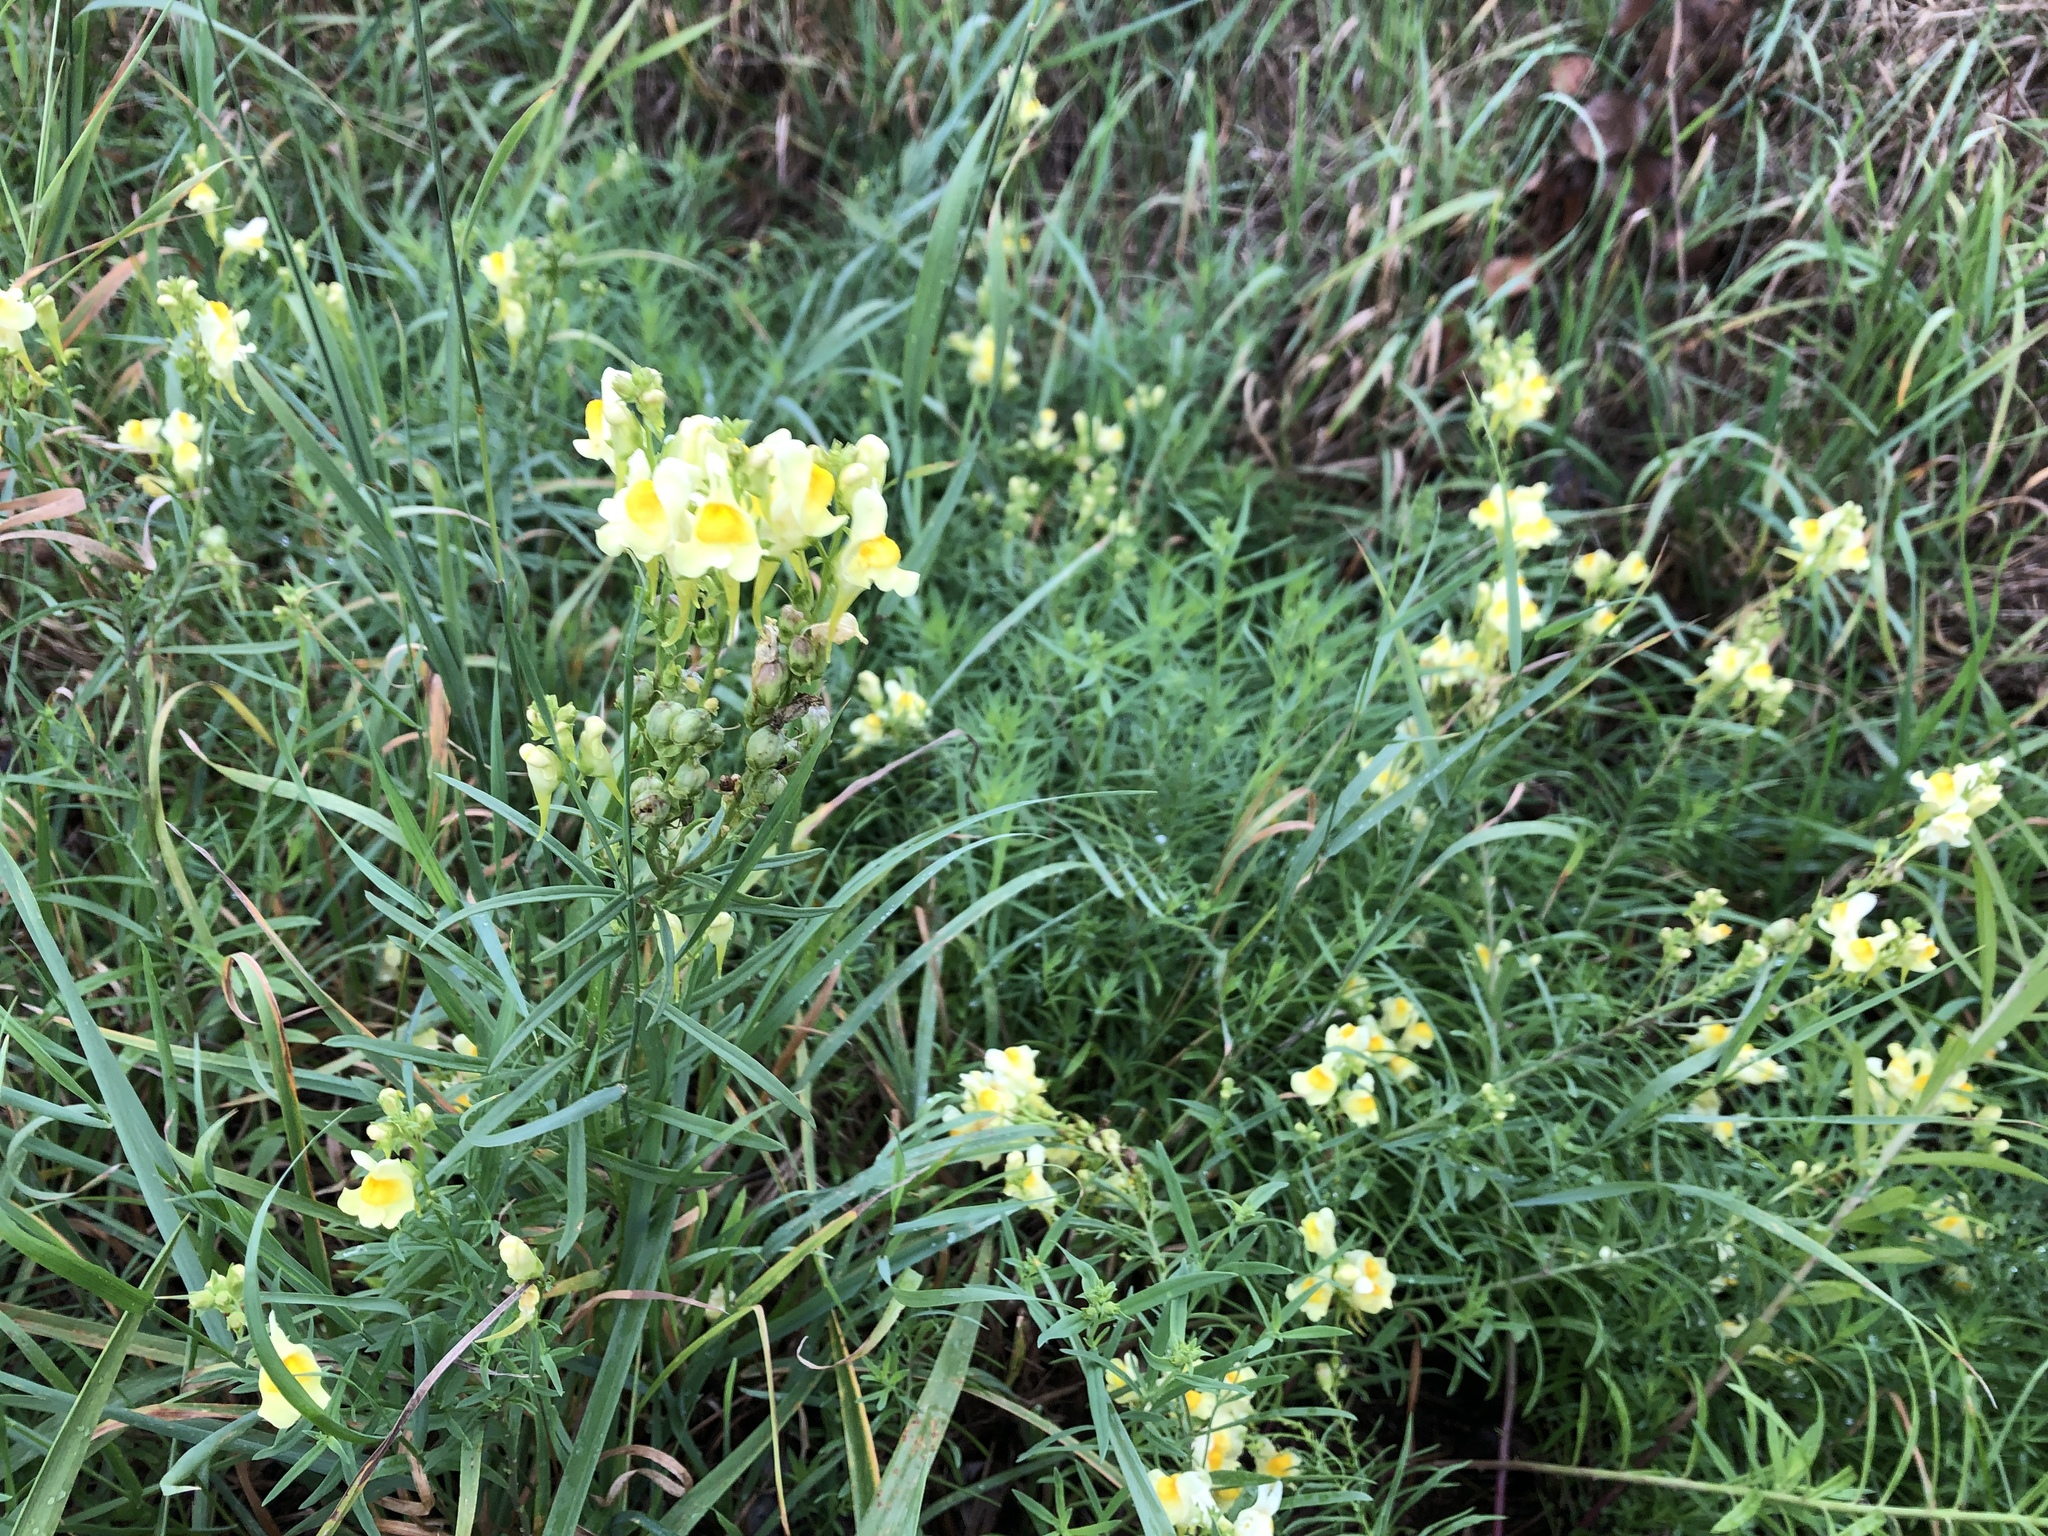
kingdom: Plantae
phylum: Tracheophyta
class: Magnoliopsida
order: Lamiales
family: Plantaginaceae
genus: Linaria
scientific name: Linaria vulgaris
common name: Butter and eggs
